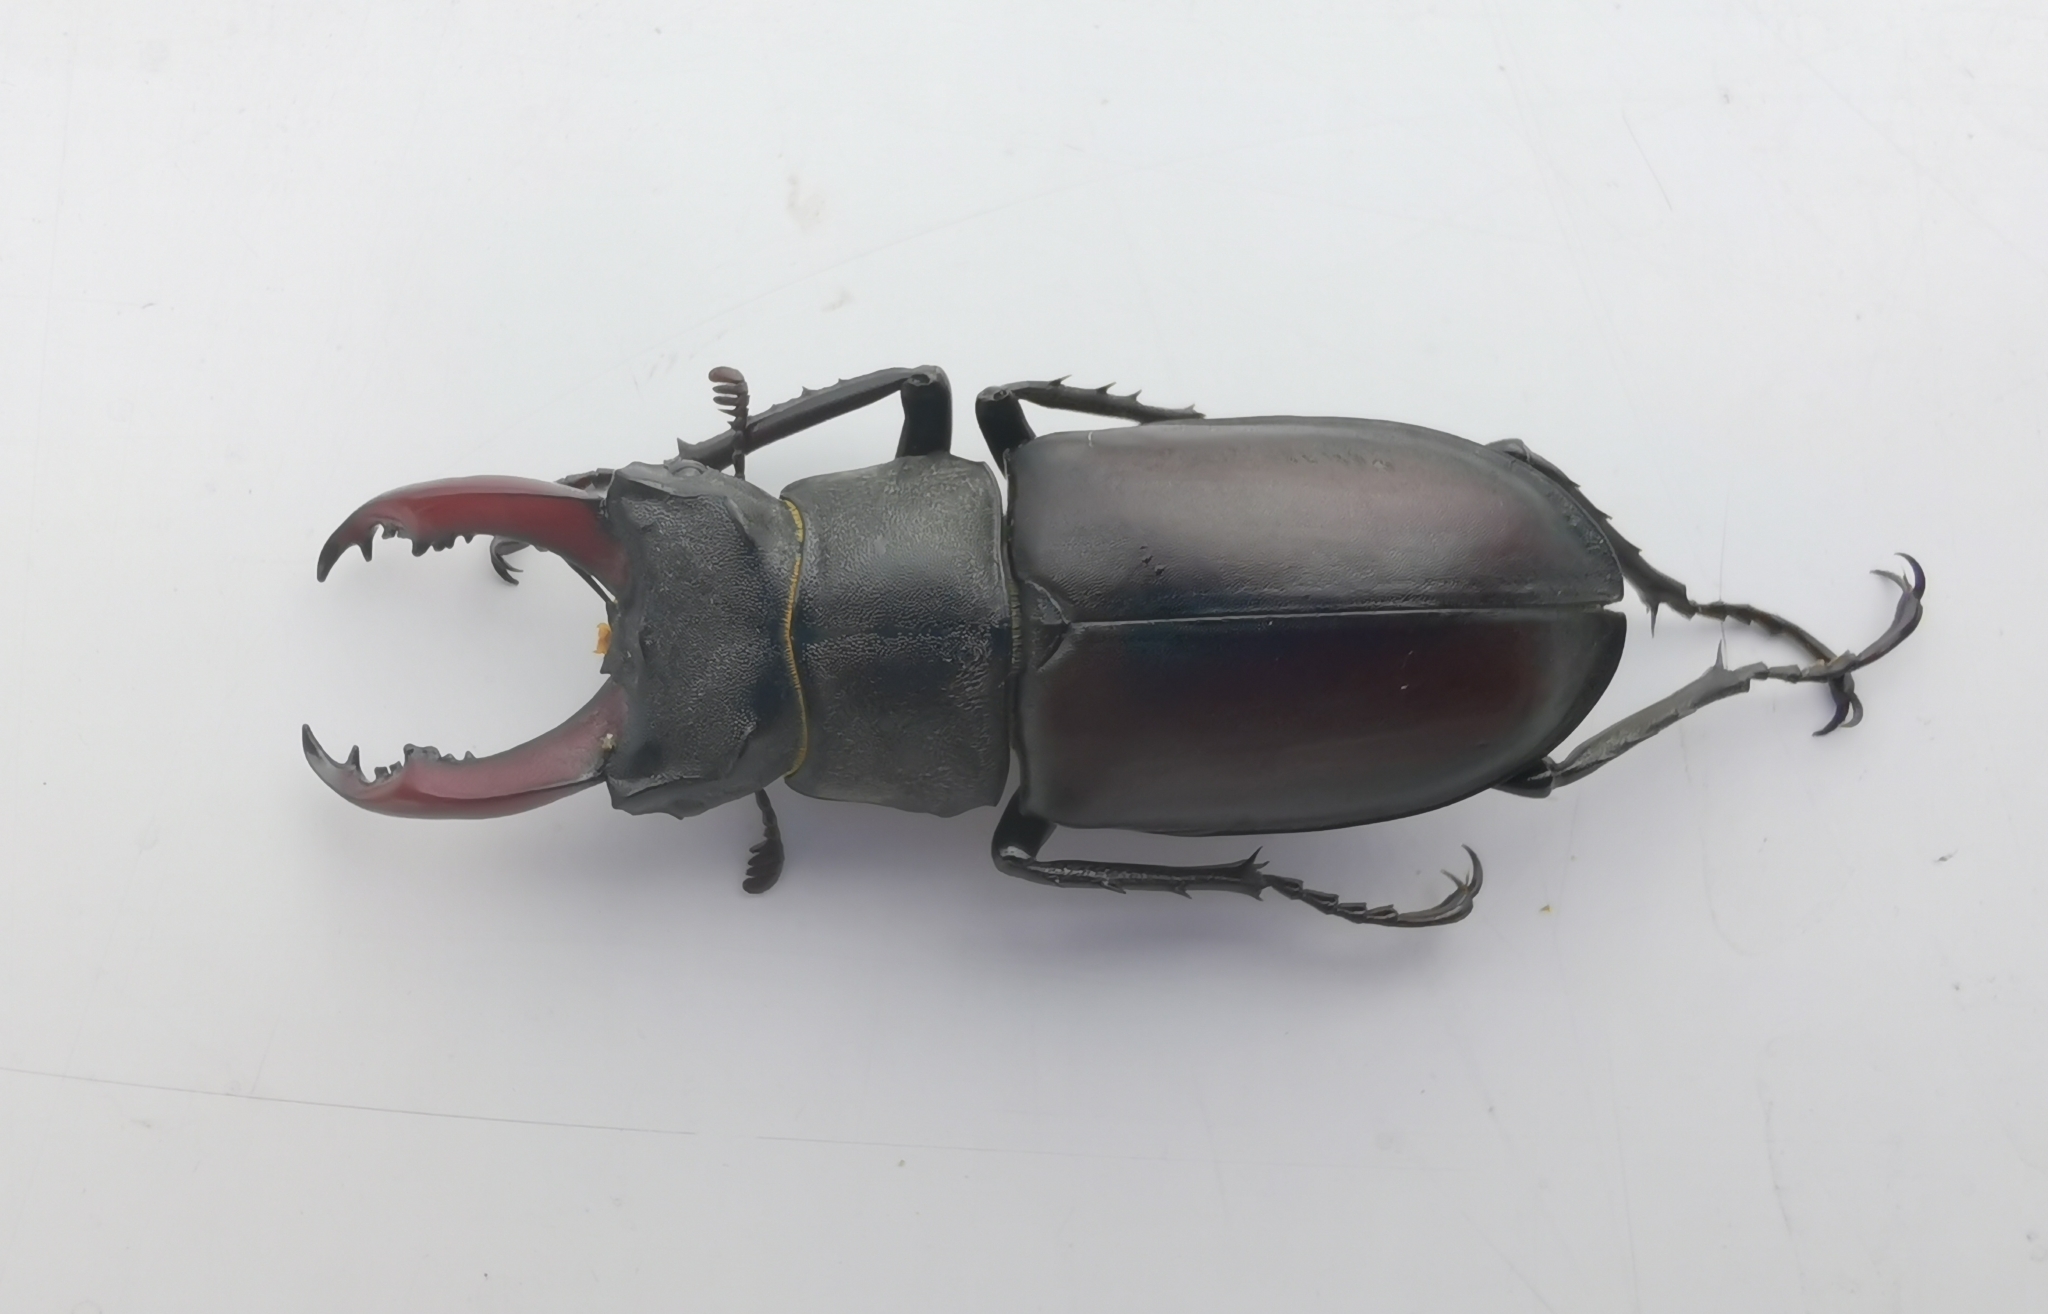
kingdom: Animalia
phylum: Arthropoda
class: Insecta
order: Coleoptera
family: Lucanidae
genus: Lucanus
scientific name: Lucanus cervus
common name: Stag beetle
